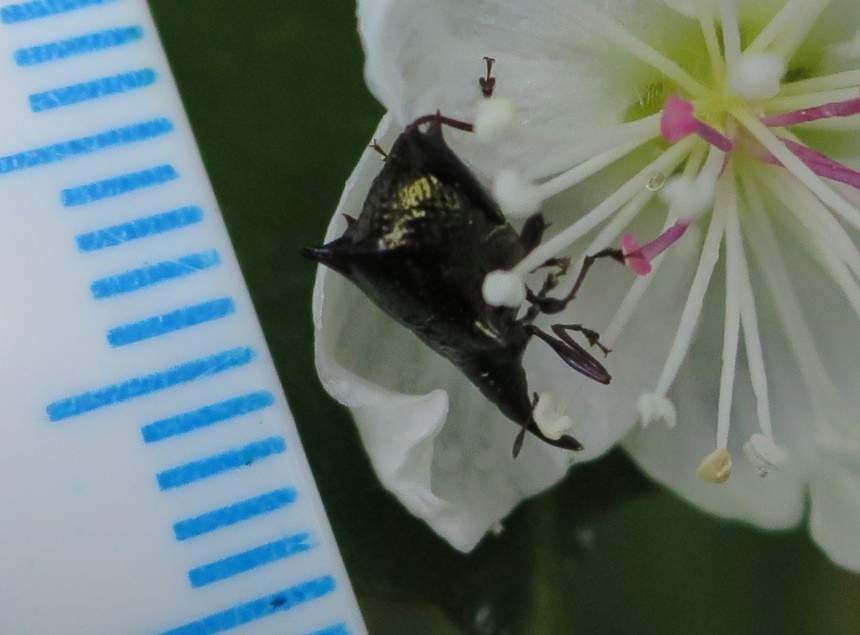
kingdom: Animalia
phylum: Arthropoda
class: Insecta
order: Coleoptera
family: Curculionidae
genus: Scolopterus
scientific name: Scolopterus aequus
